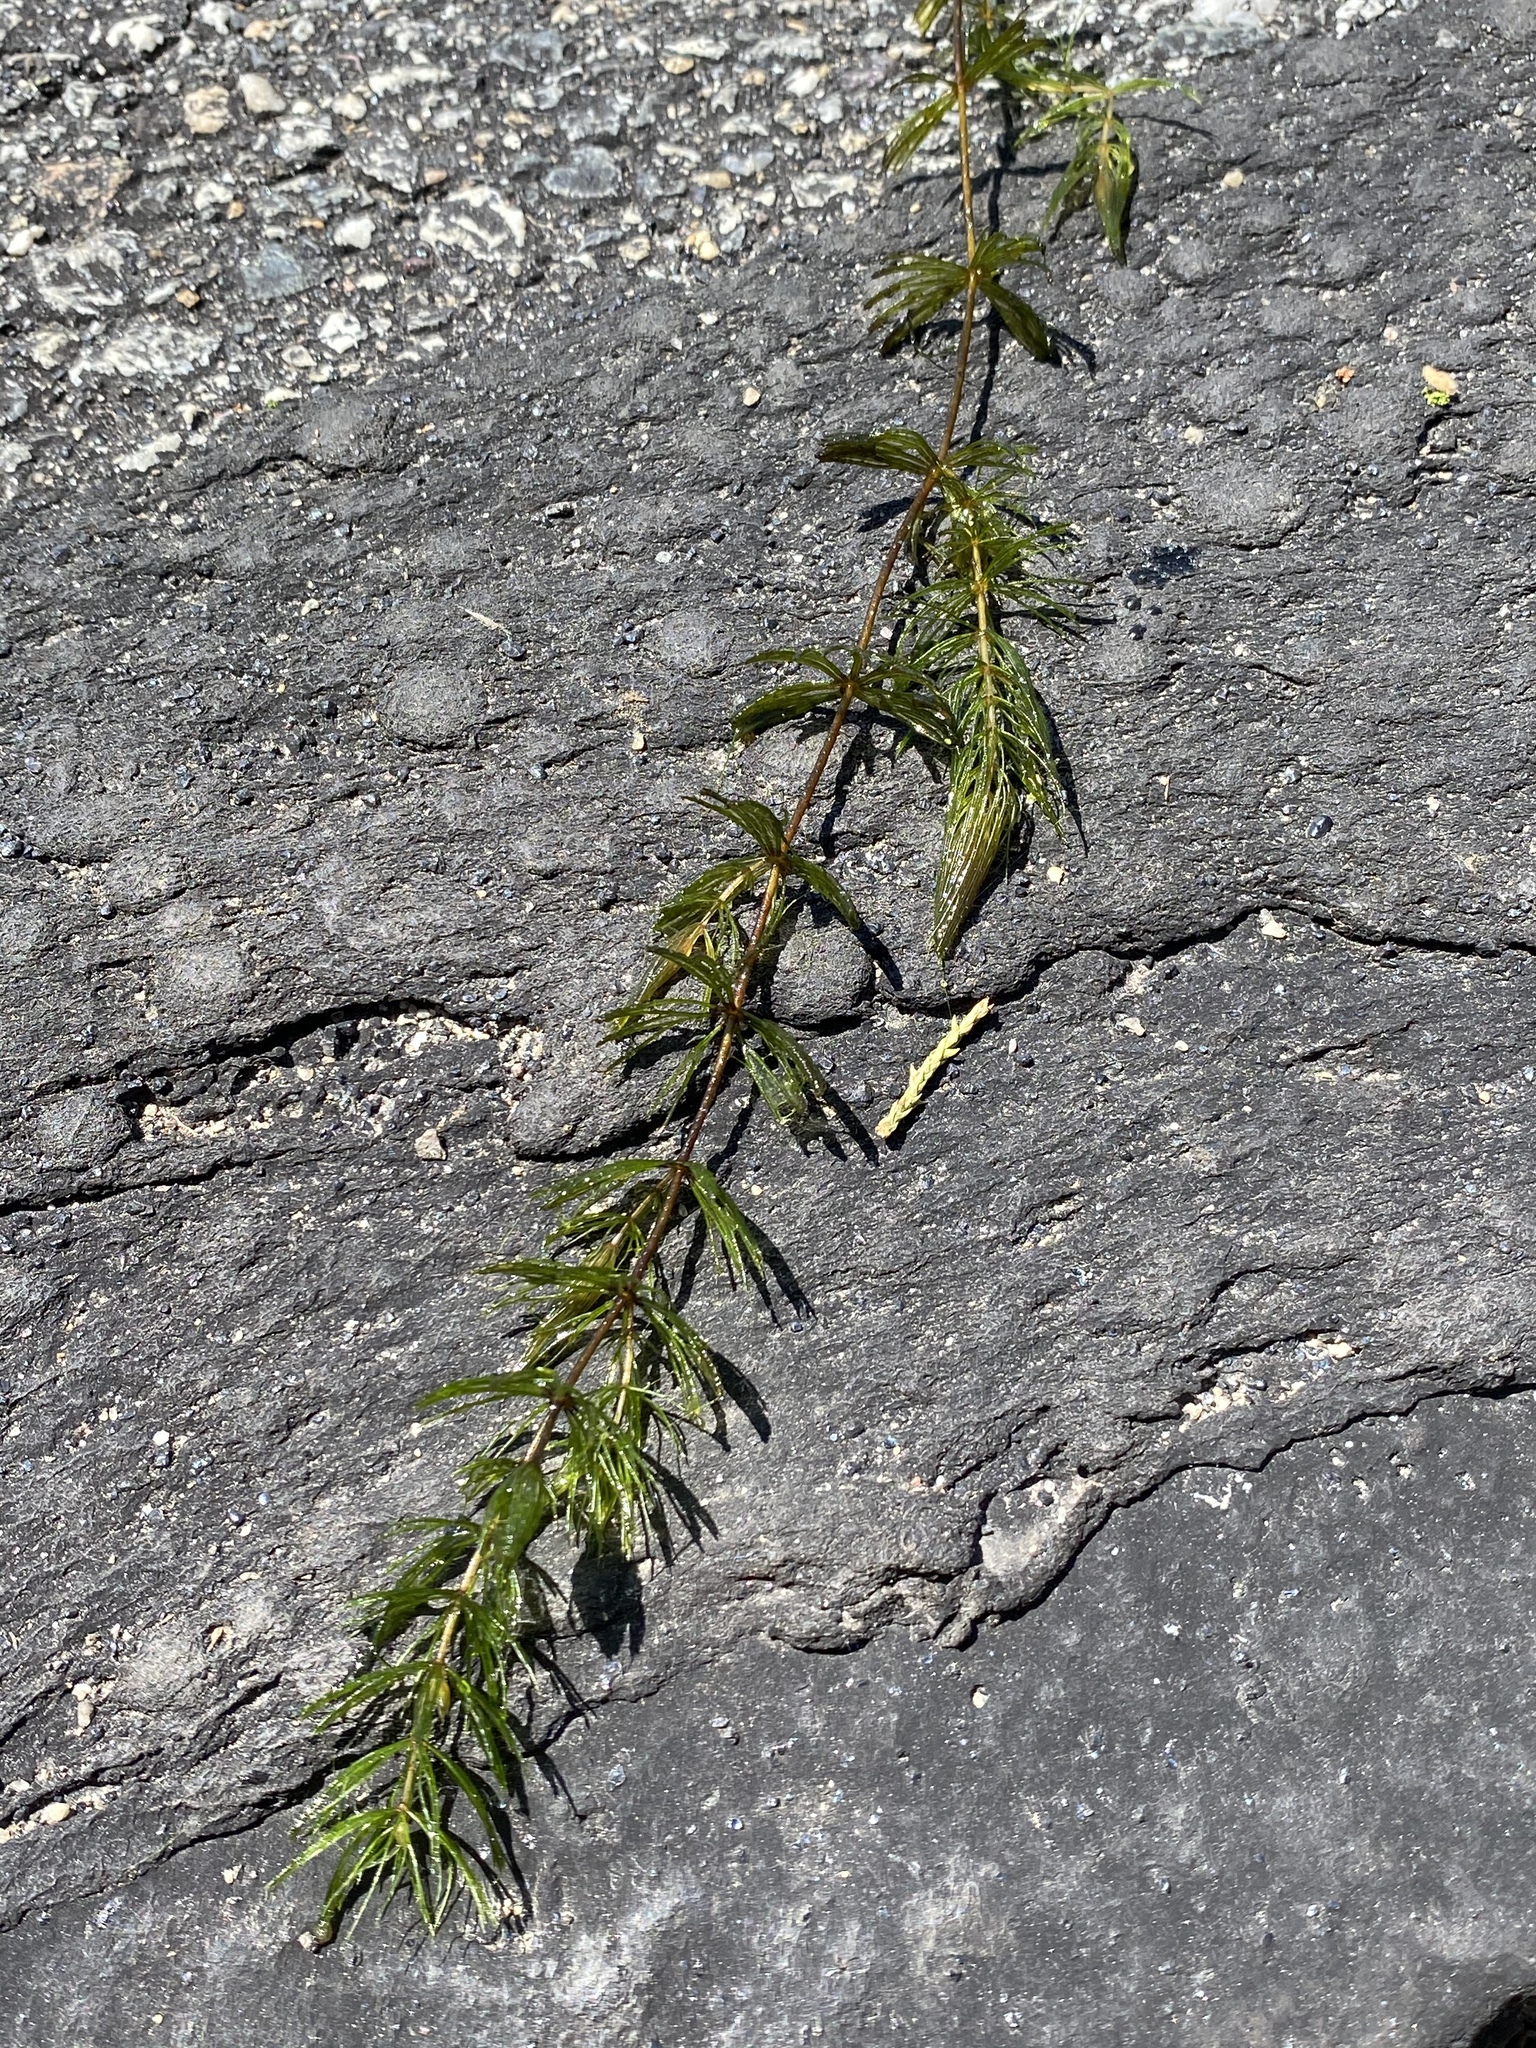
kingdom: Plantae
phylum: Tracheophyta
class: Magnoliopsida
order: Ceratophyllales
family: Ceratophyllaceae
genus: Ceratophyllum
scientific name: Ceratophyllum demersum
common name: Rigid hornwort
